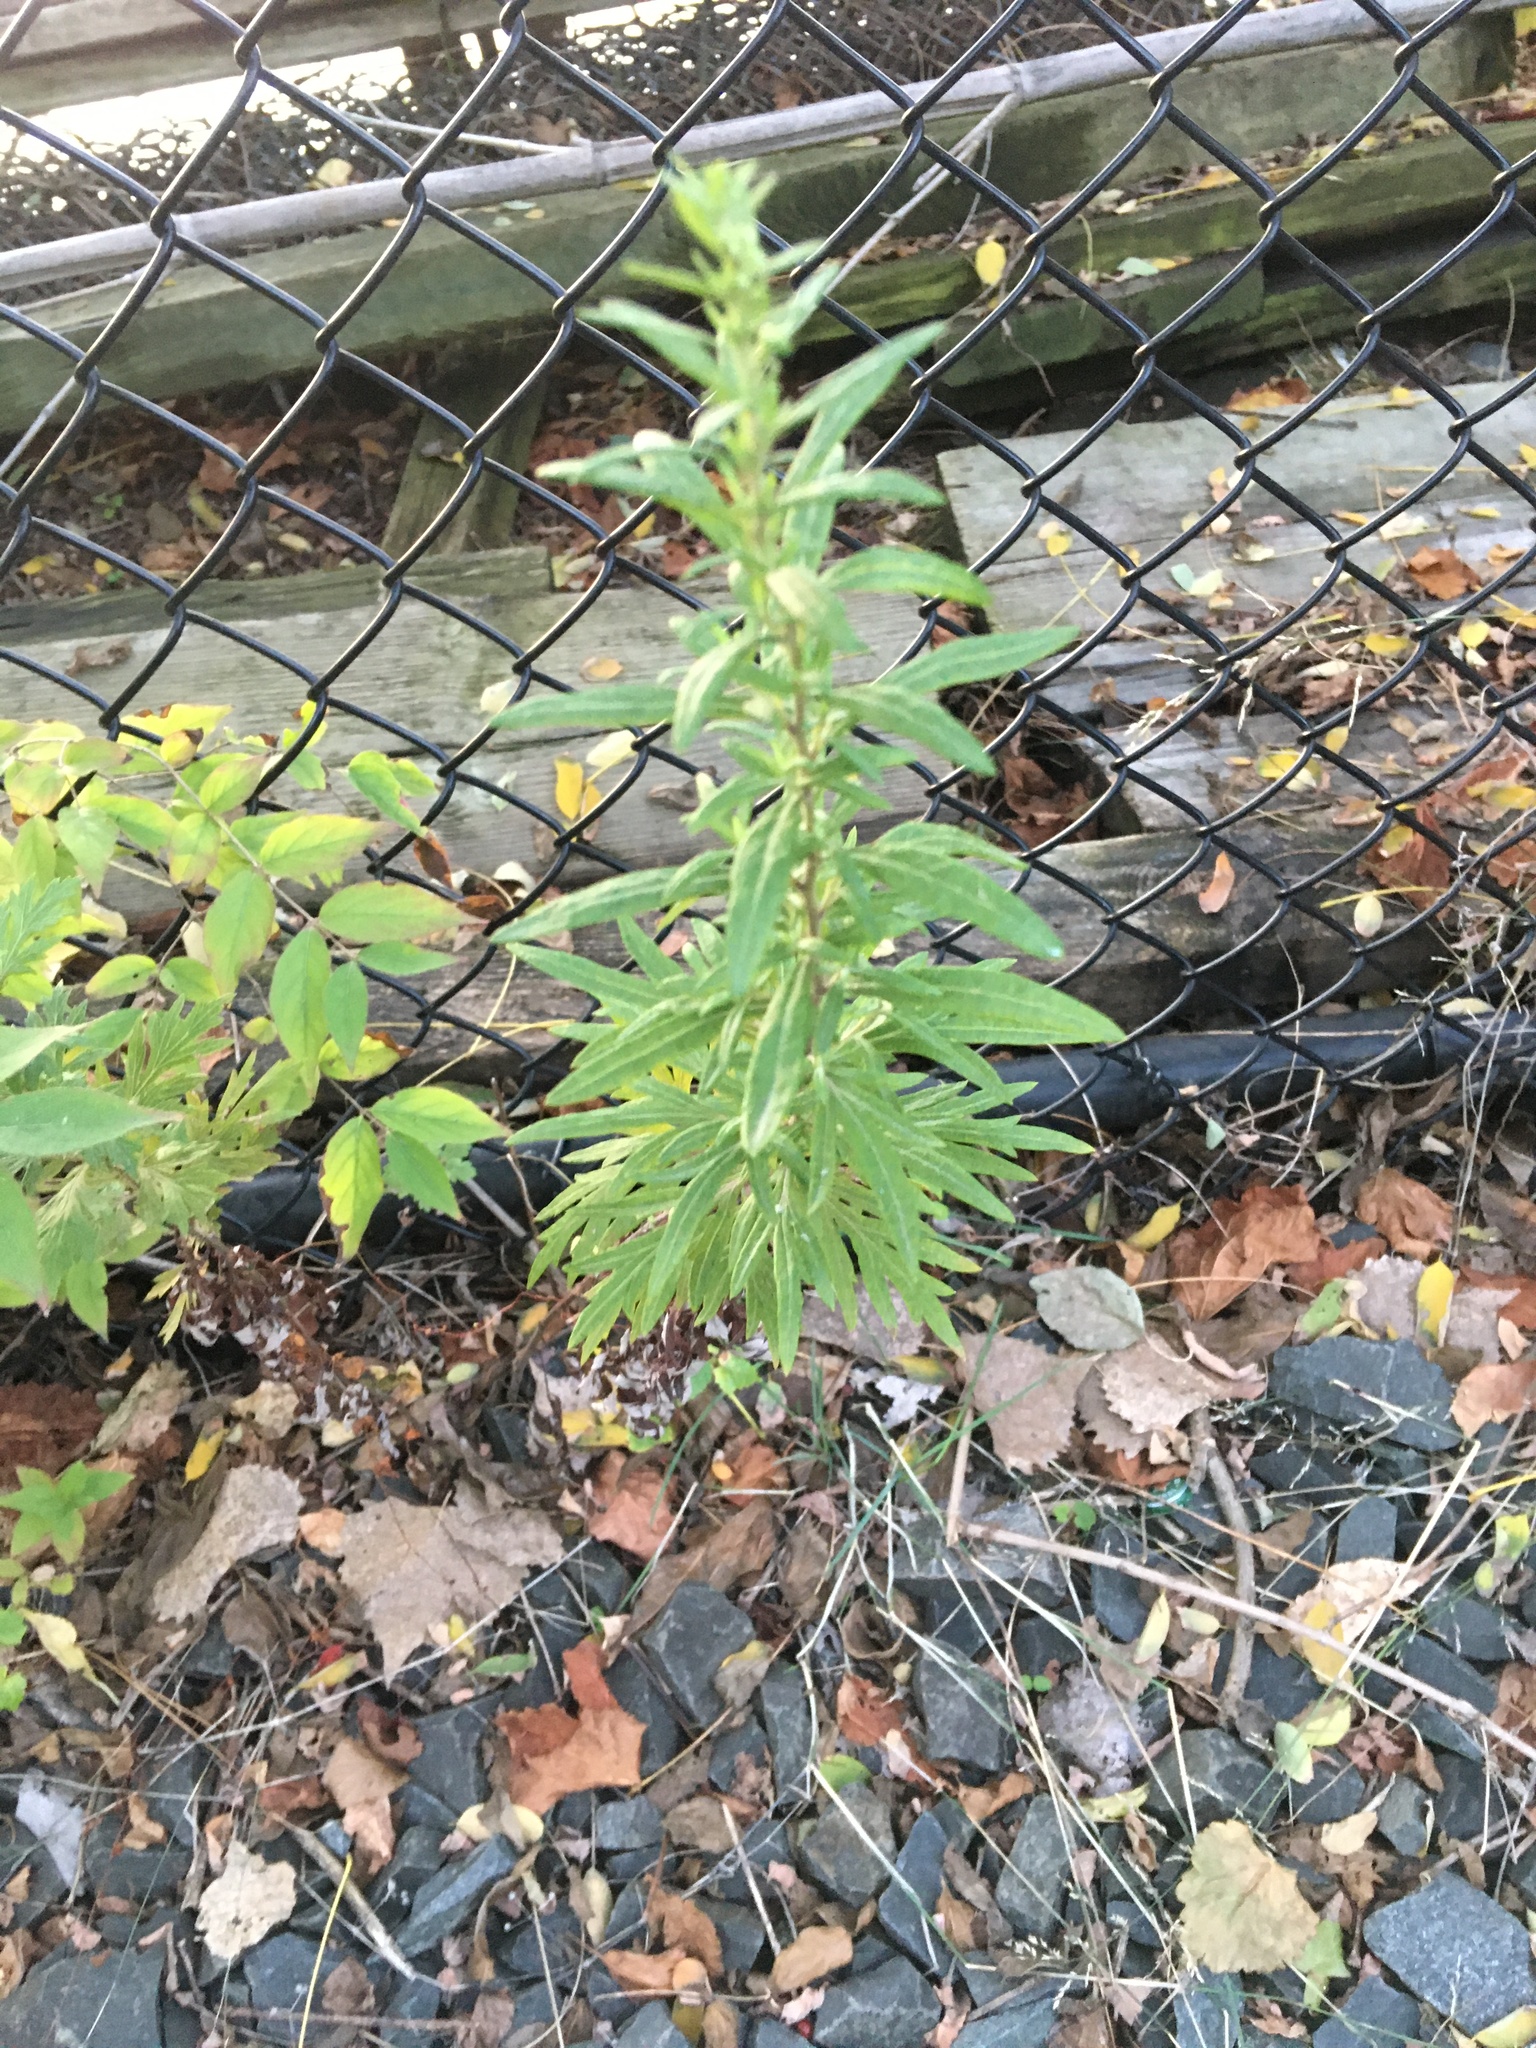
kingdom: Plantae
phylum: Tracheophyta
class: Magnoliopsida
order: Asterales
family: Asteraceae
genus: Artemisia
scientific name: Artemisia vulgaris
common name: Mugwort
